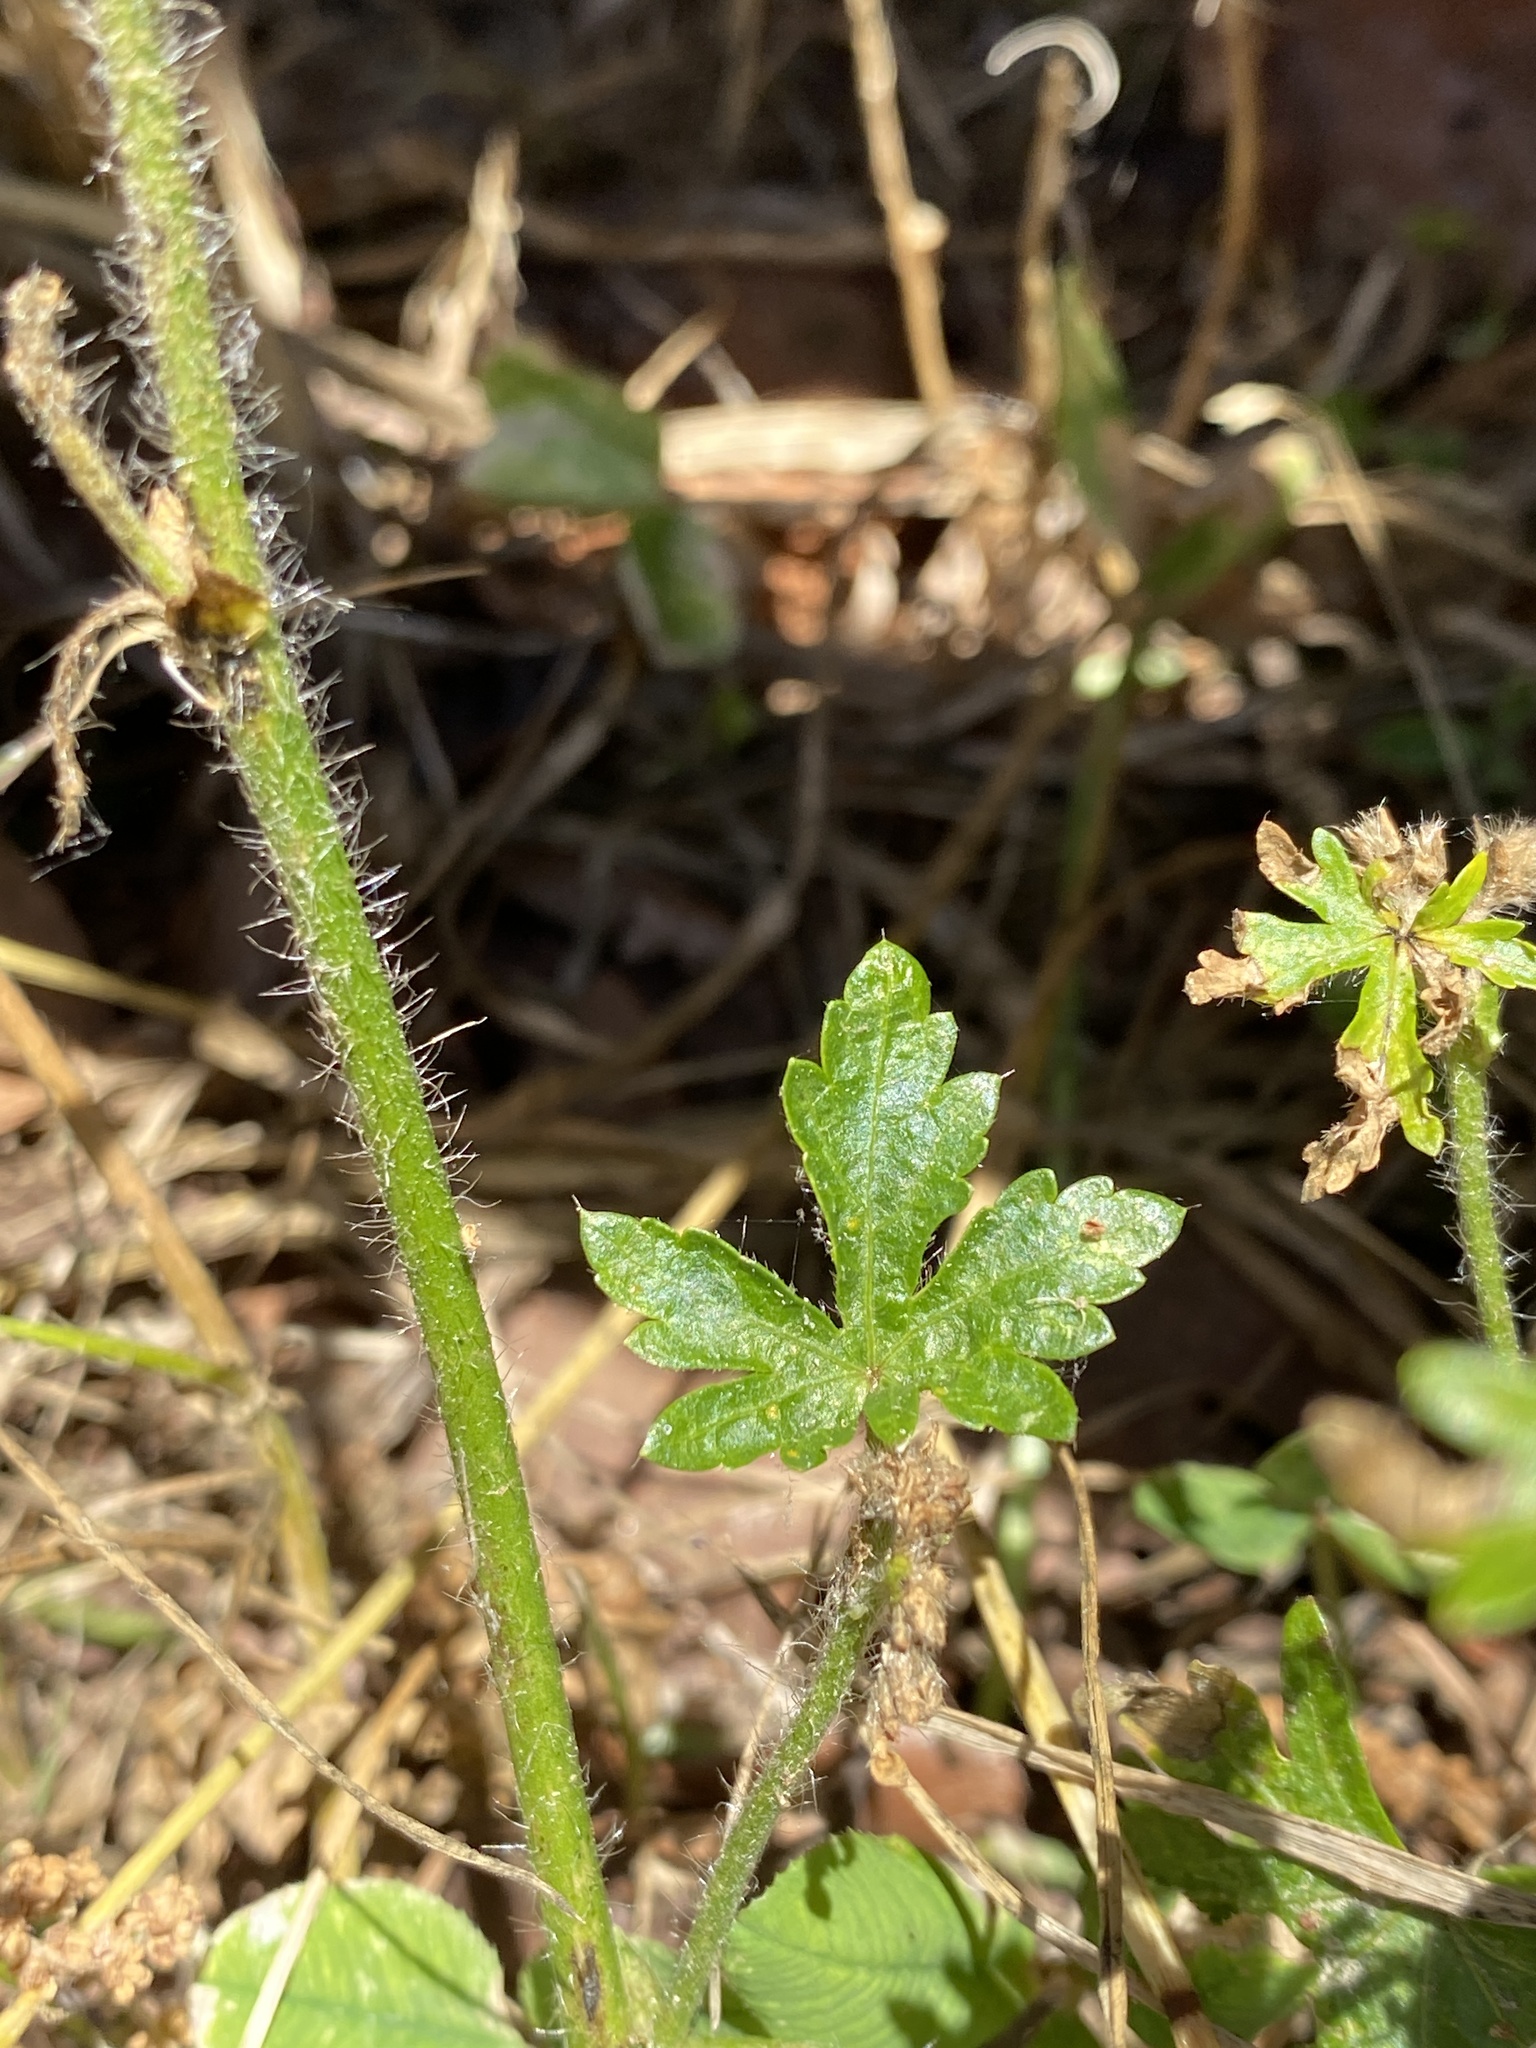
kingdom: Plantae
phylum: Tracheophyta
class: Magnoliopsida
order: Malvales
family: Malvaceae
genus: Modiola
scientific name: Modiola caroliniana
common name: Carolina bristlemallow
